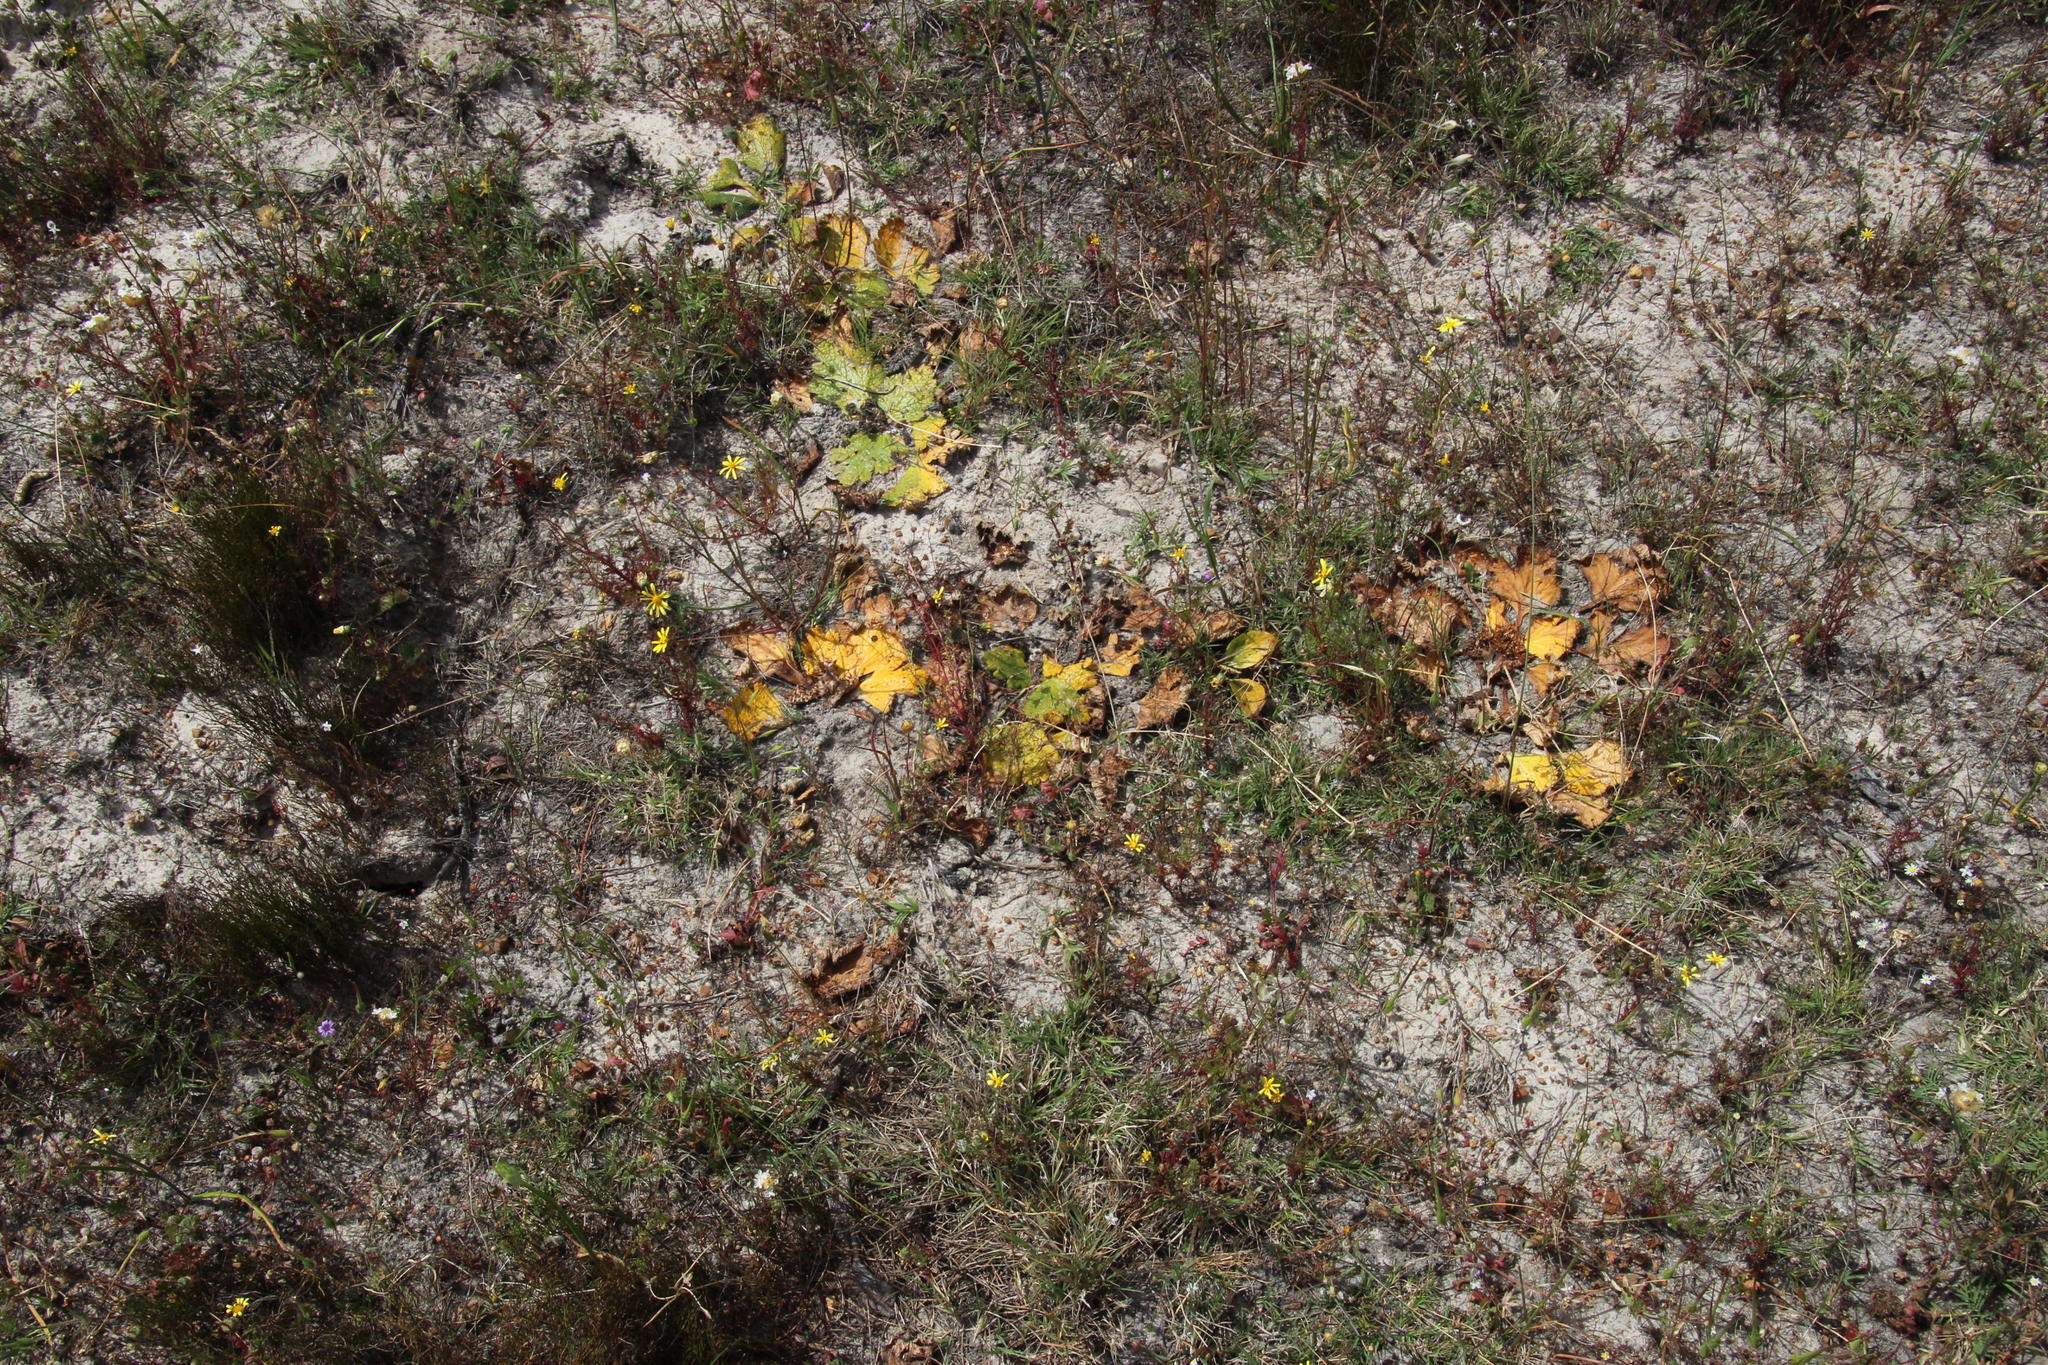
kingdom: Plantae
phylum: Tracheophyta
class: Magnoliopsida
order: Apiales
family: Apiaceae
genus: Arctopus
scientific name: Arctopus echinatus
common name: Platdoring
